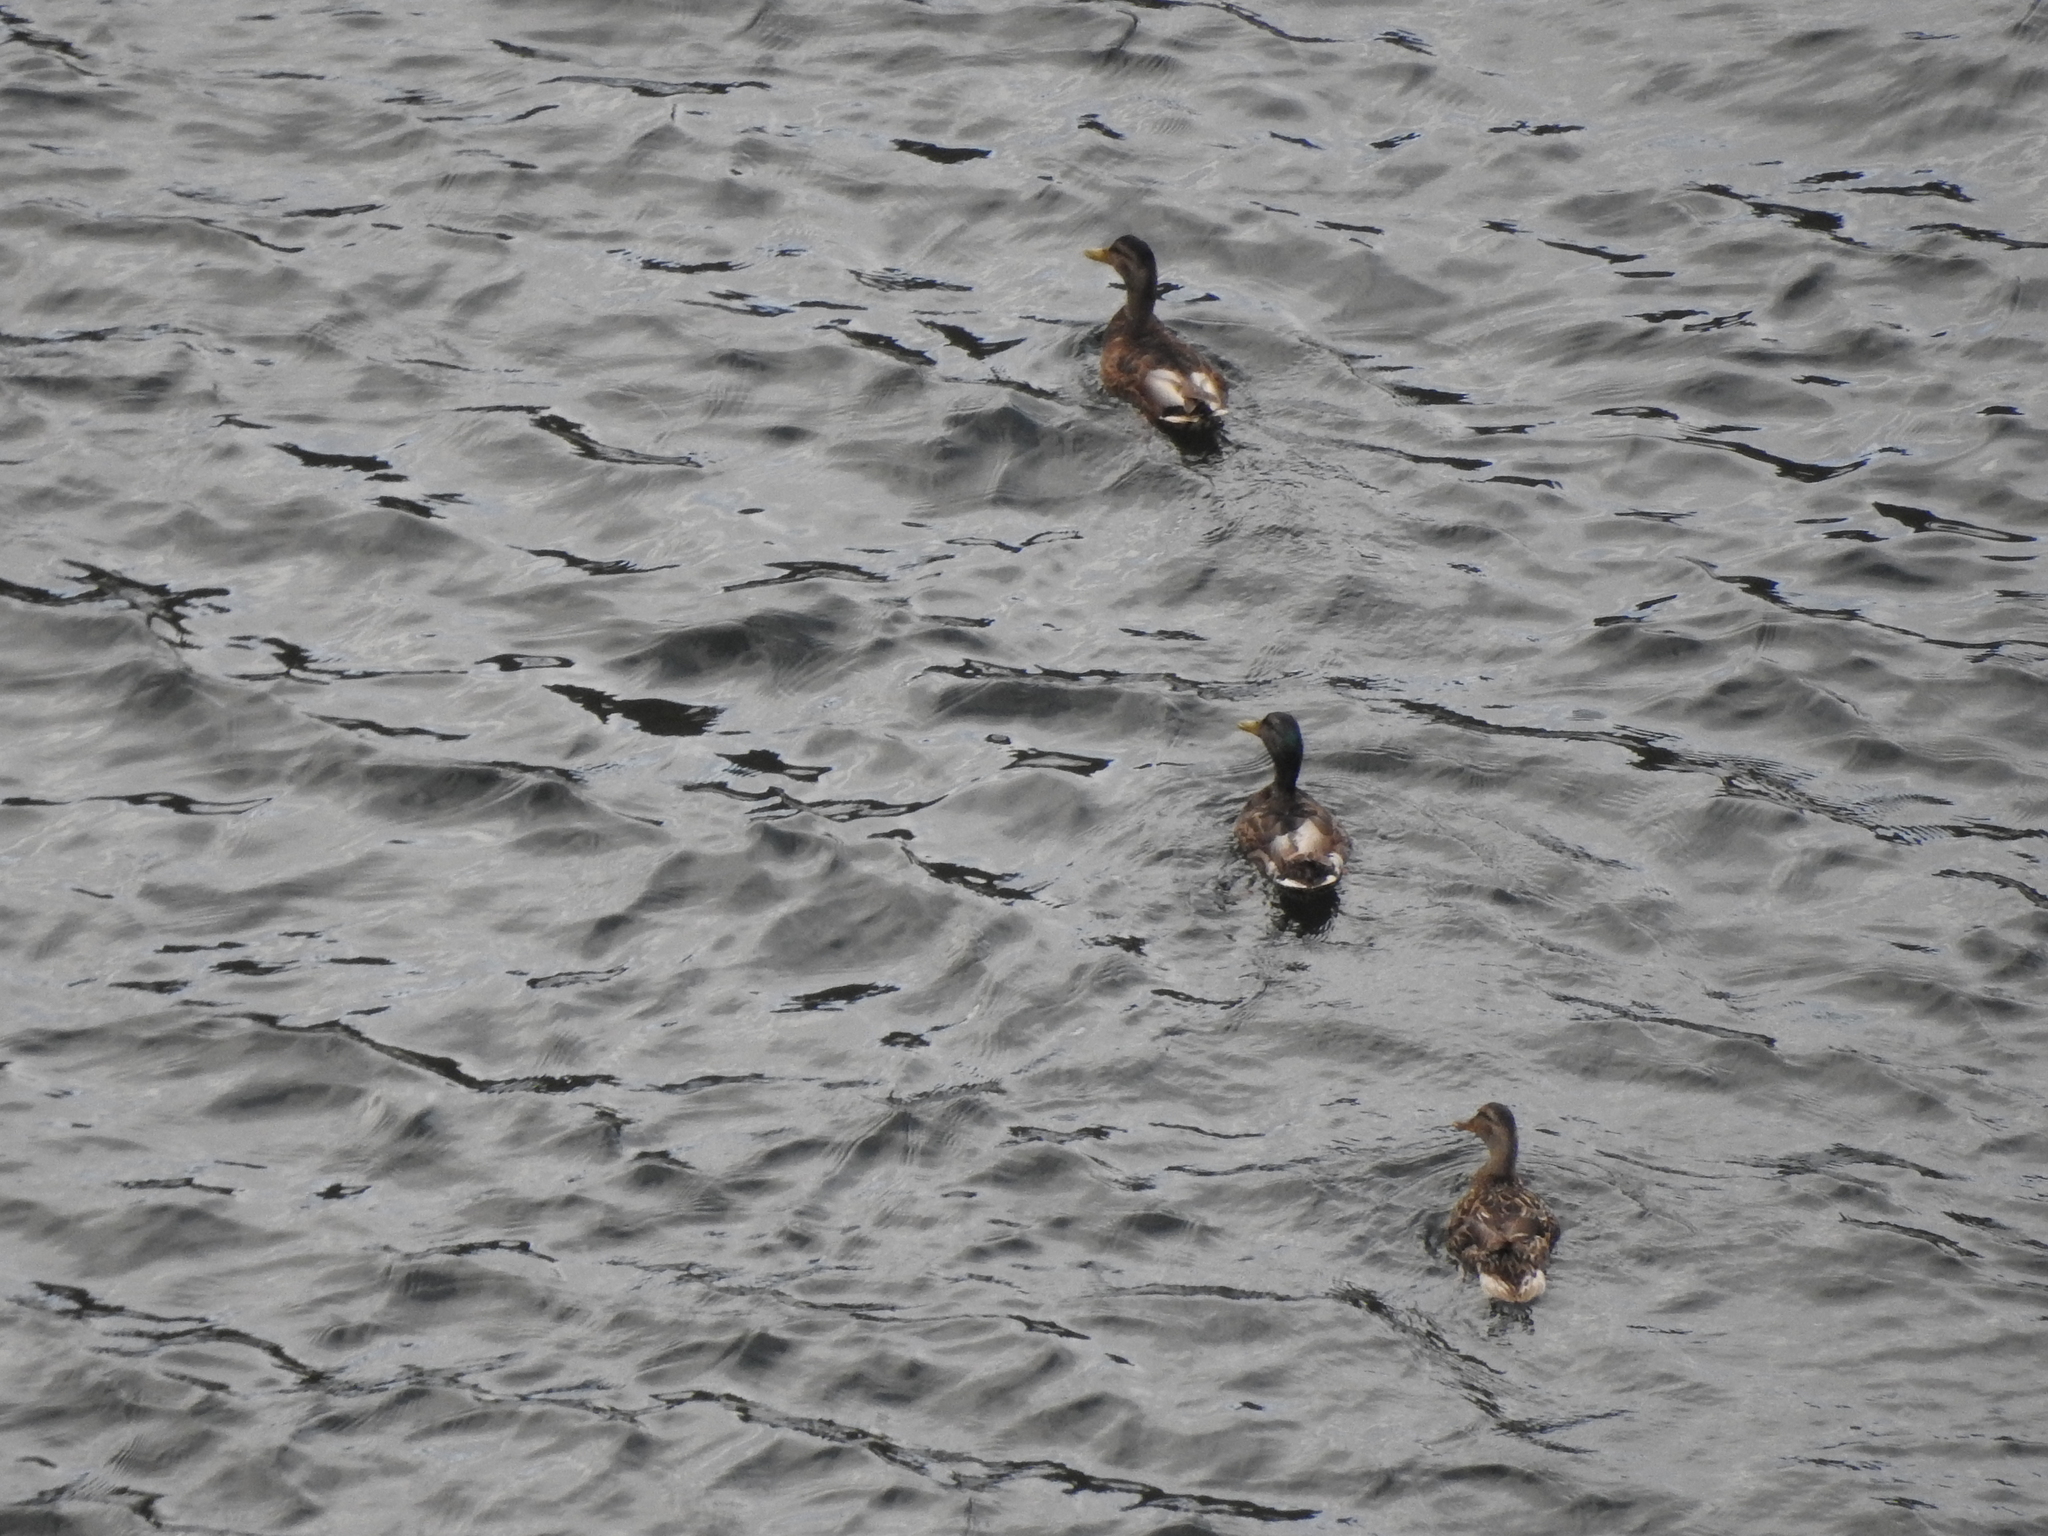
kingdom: Animalia
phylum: Chordata
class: Aves
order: Anseriformes
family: Anatidae
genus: Anas
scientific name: Anas platyrhynchos
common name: Mallard
